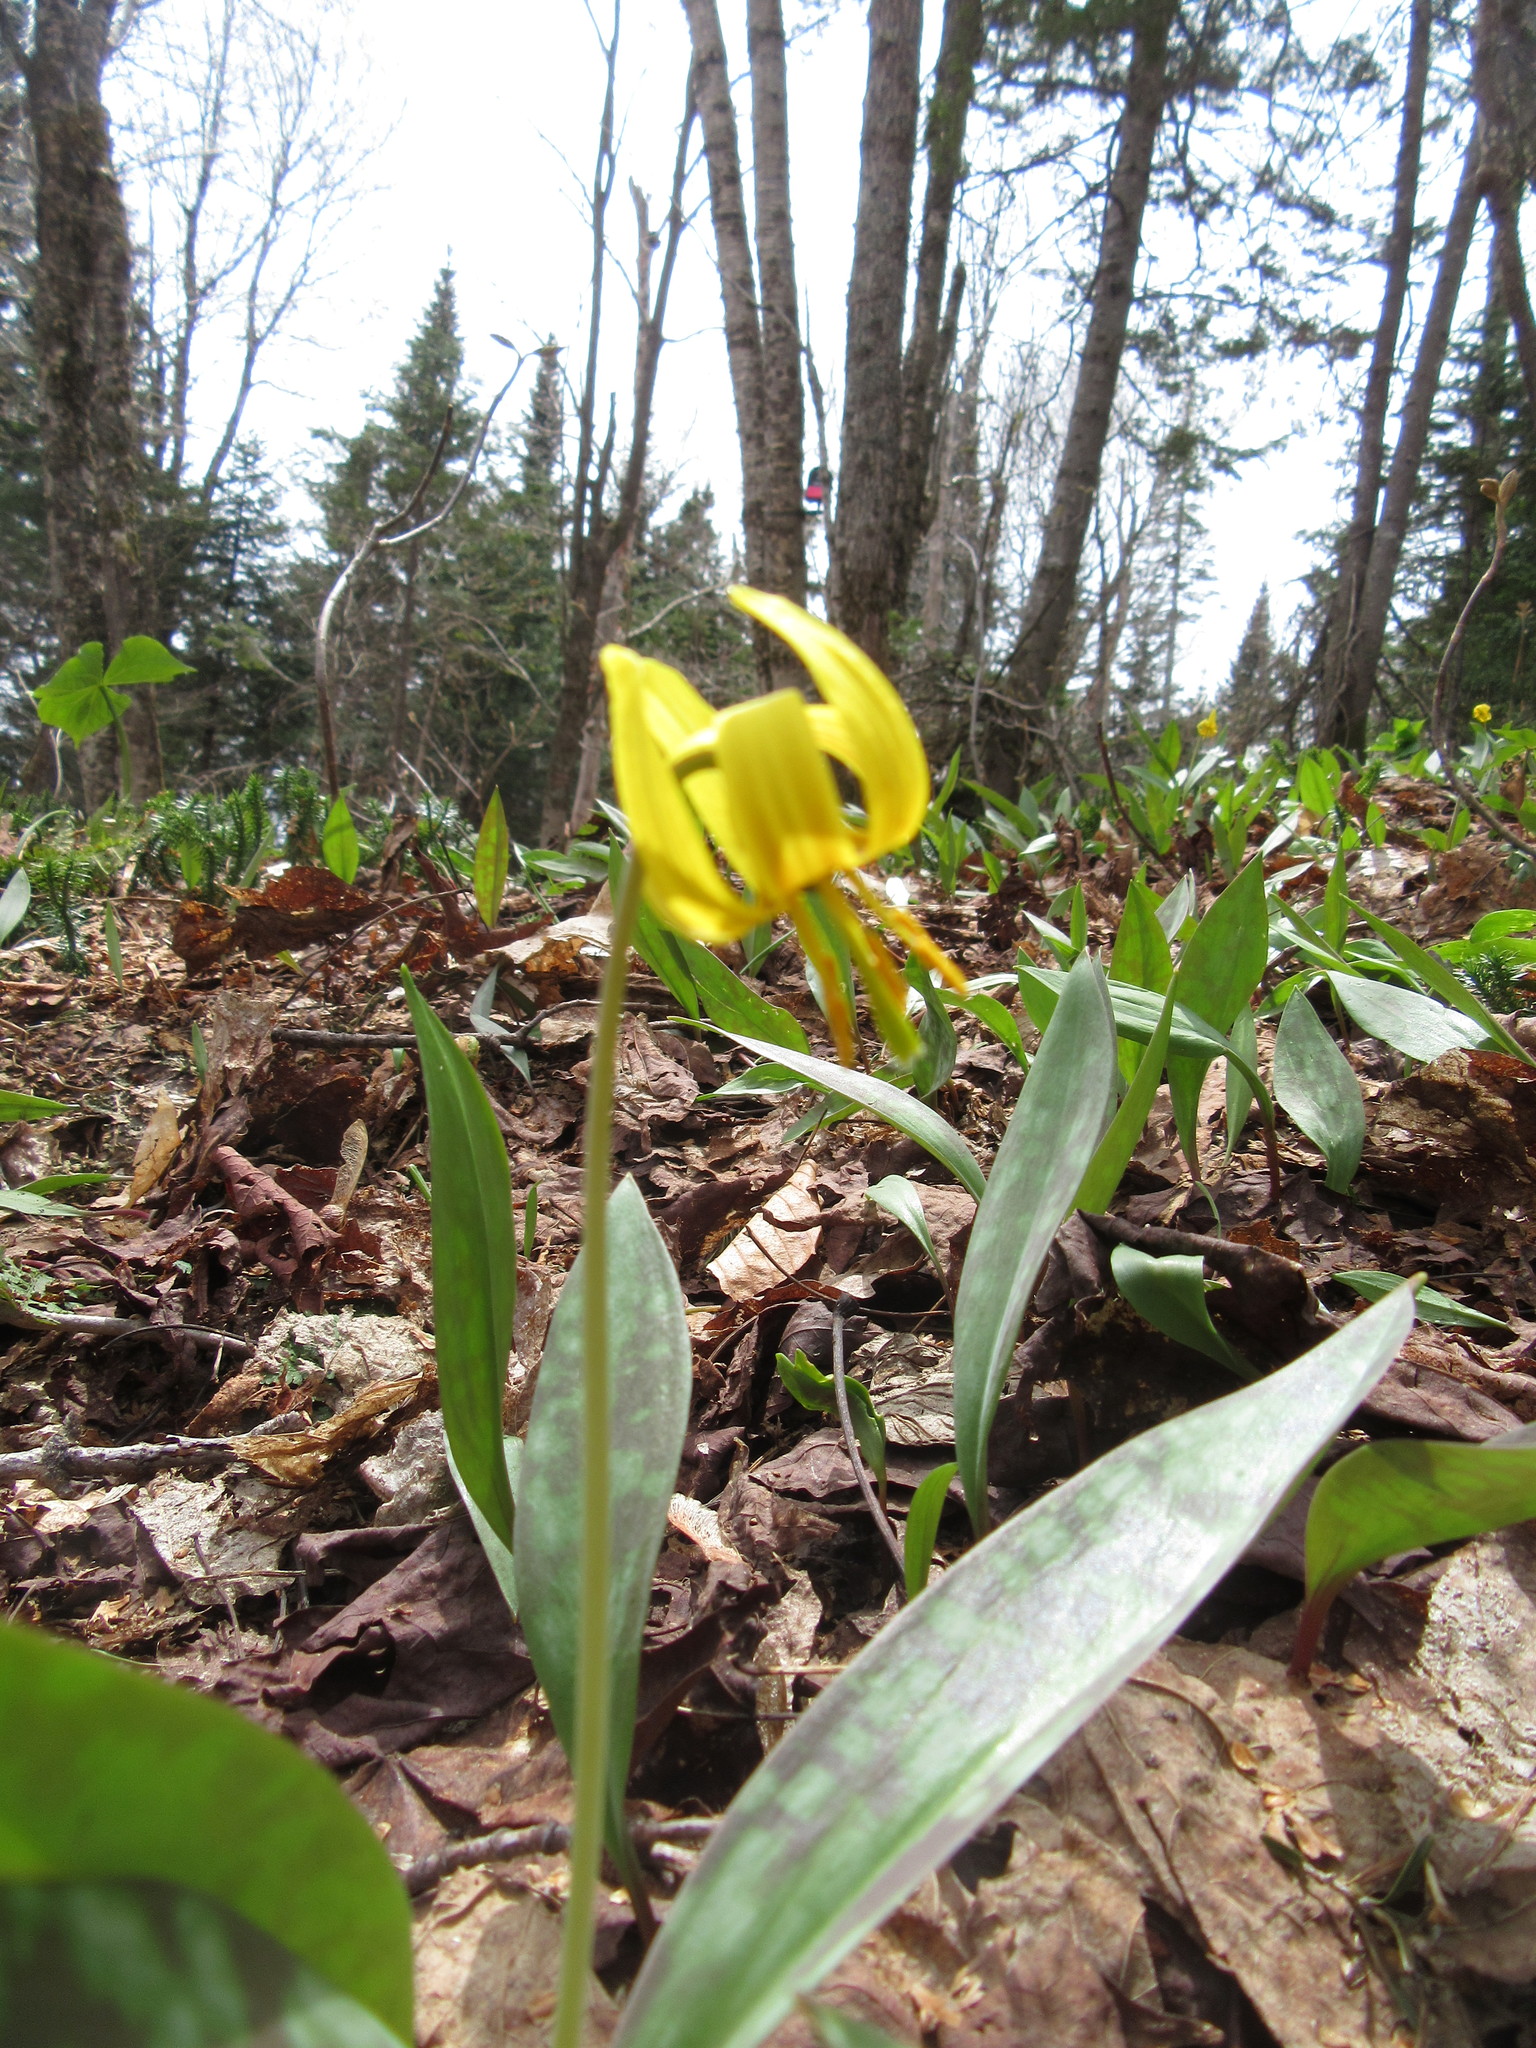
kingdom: Plantae
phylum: Tracheophyta
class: Liliopsida
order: Liliales
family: Liliaceae
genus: Erythronium
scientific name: Erythronium americanum
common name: Yellow adder's-tongue
